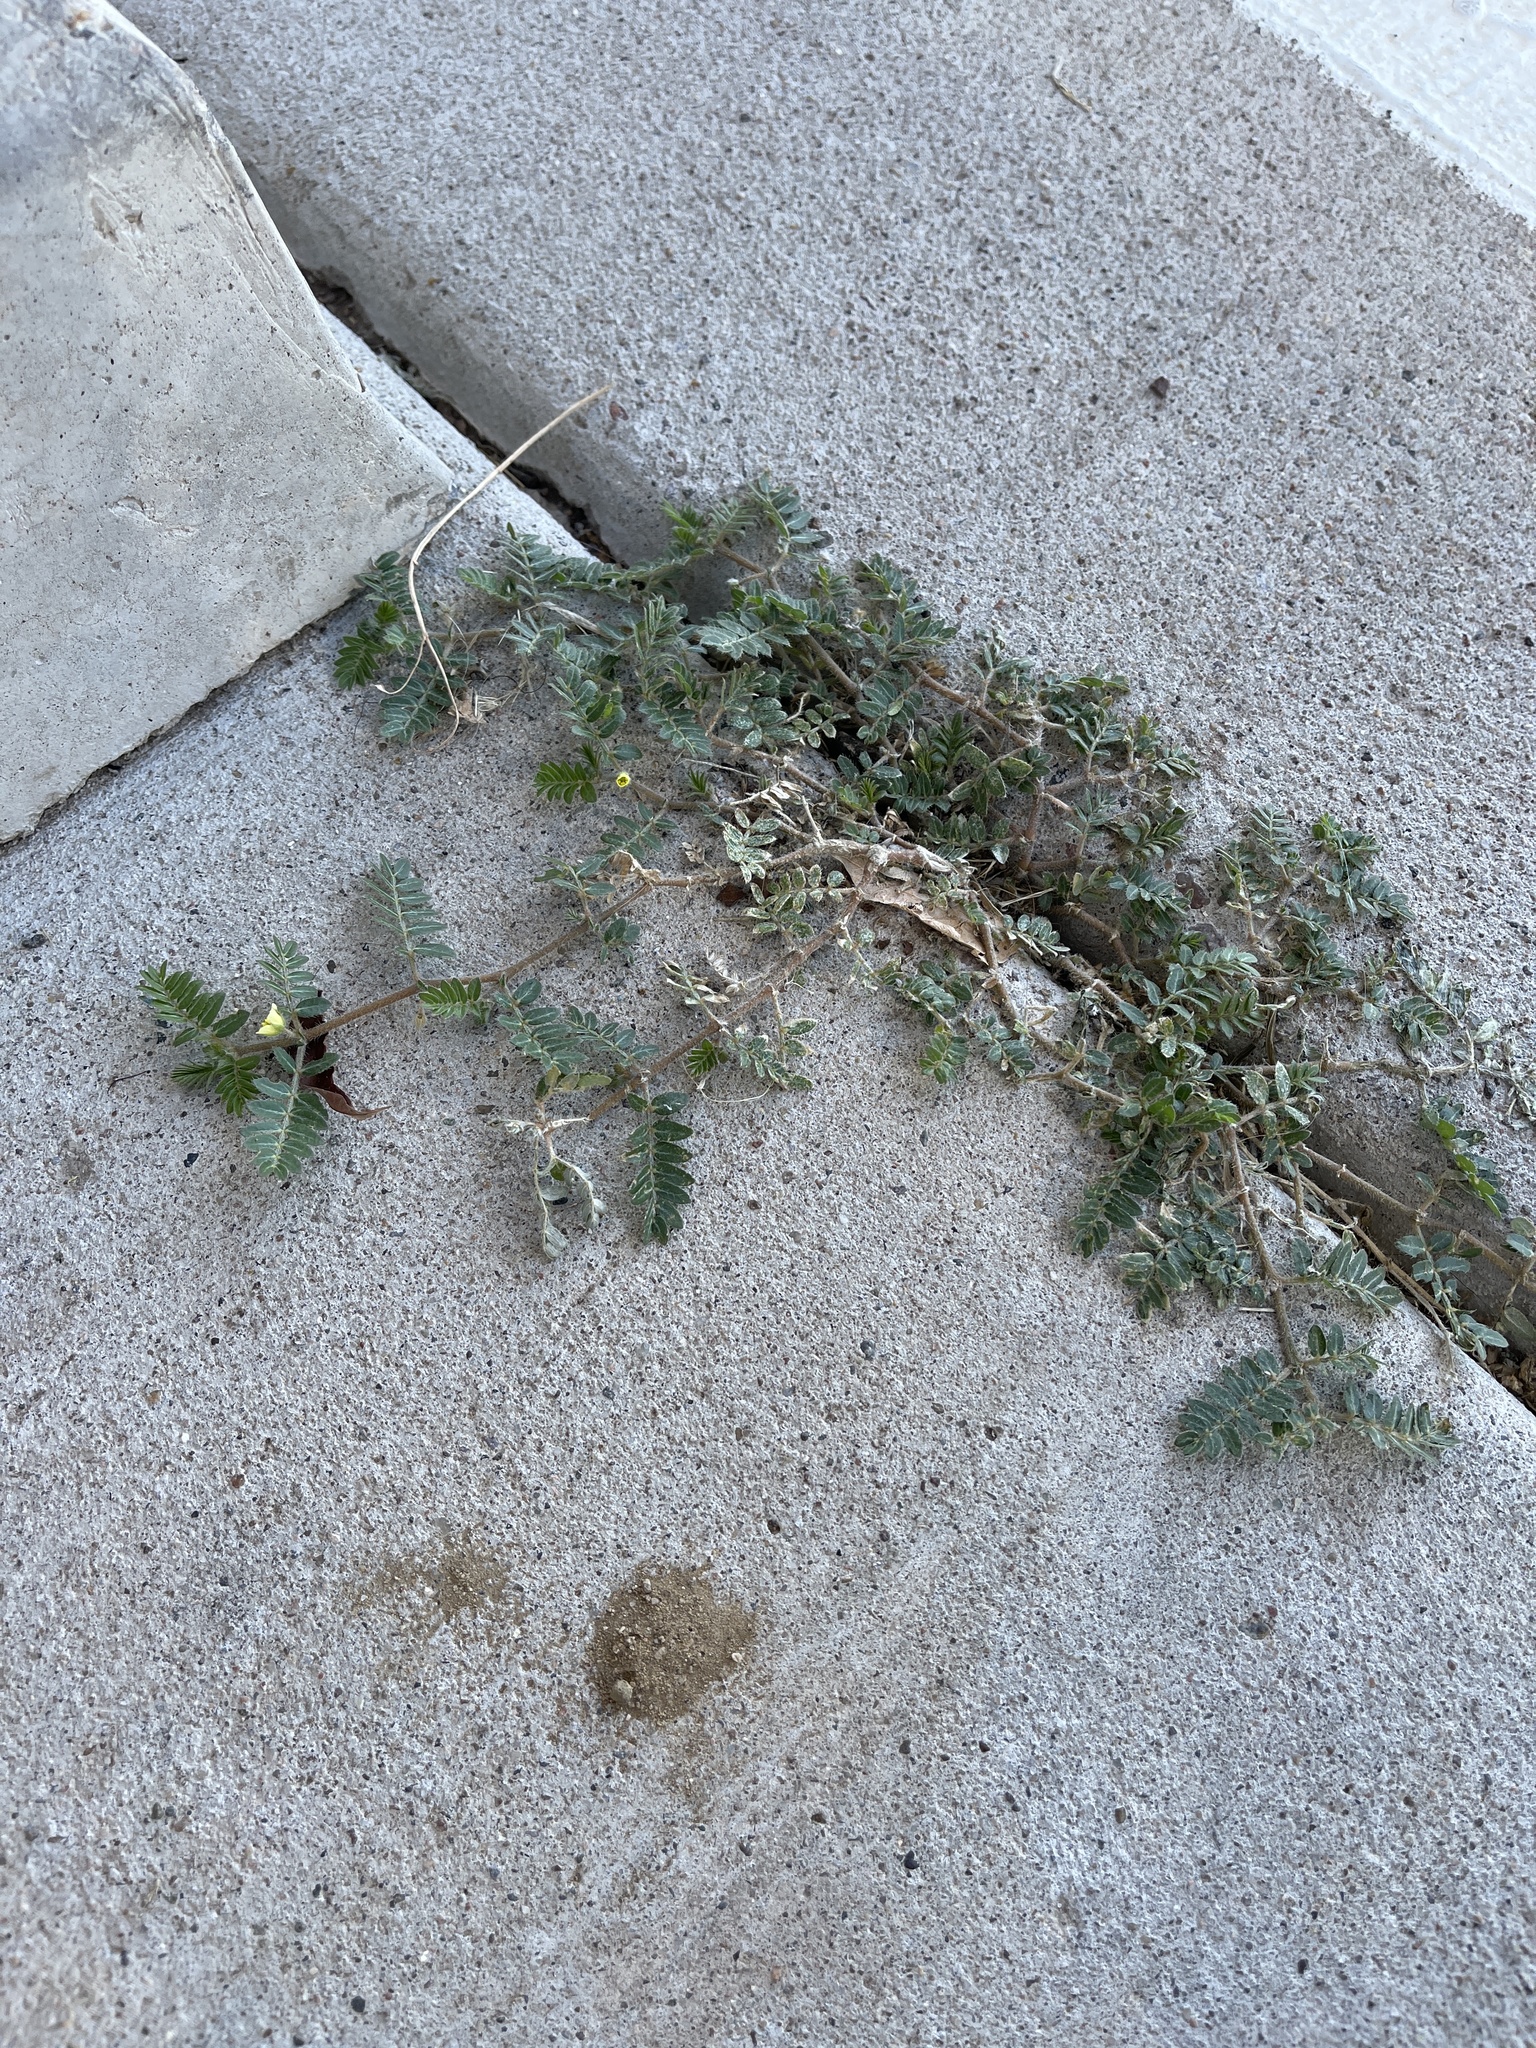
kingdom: Plantae
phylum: Tracheophyta
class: Magnoliopsida
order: Zygophyllales
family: Zygophyllaceae
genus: Tribulus
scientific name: Tribulus terrestris
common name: Puncturevine
